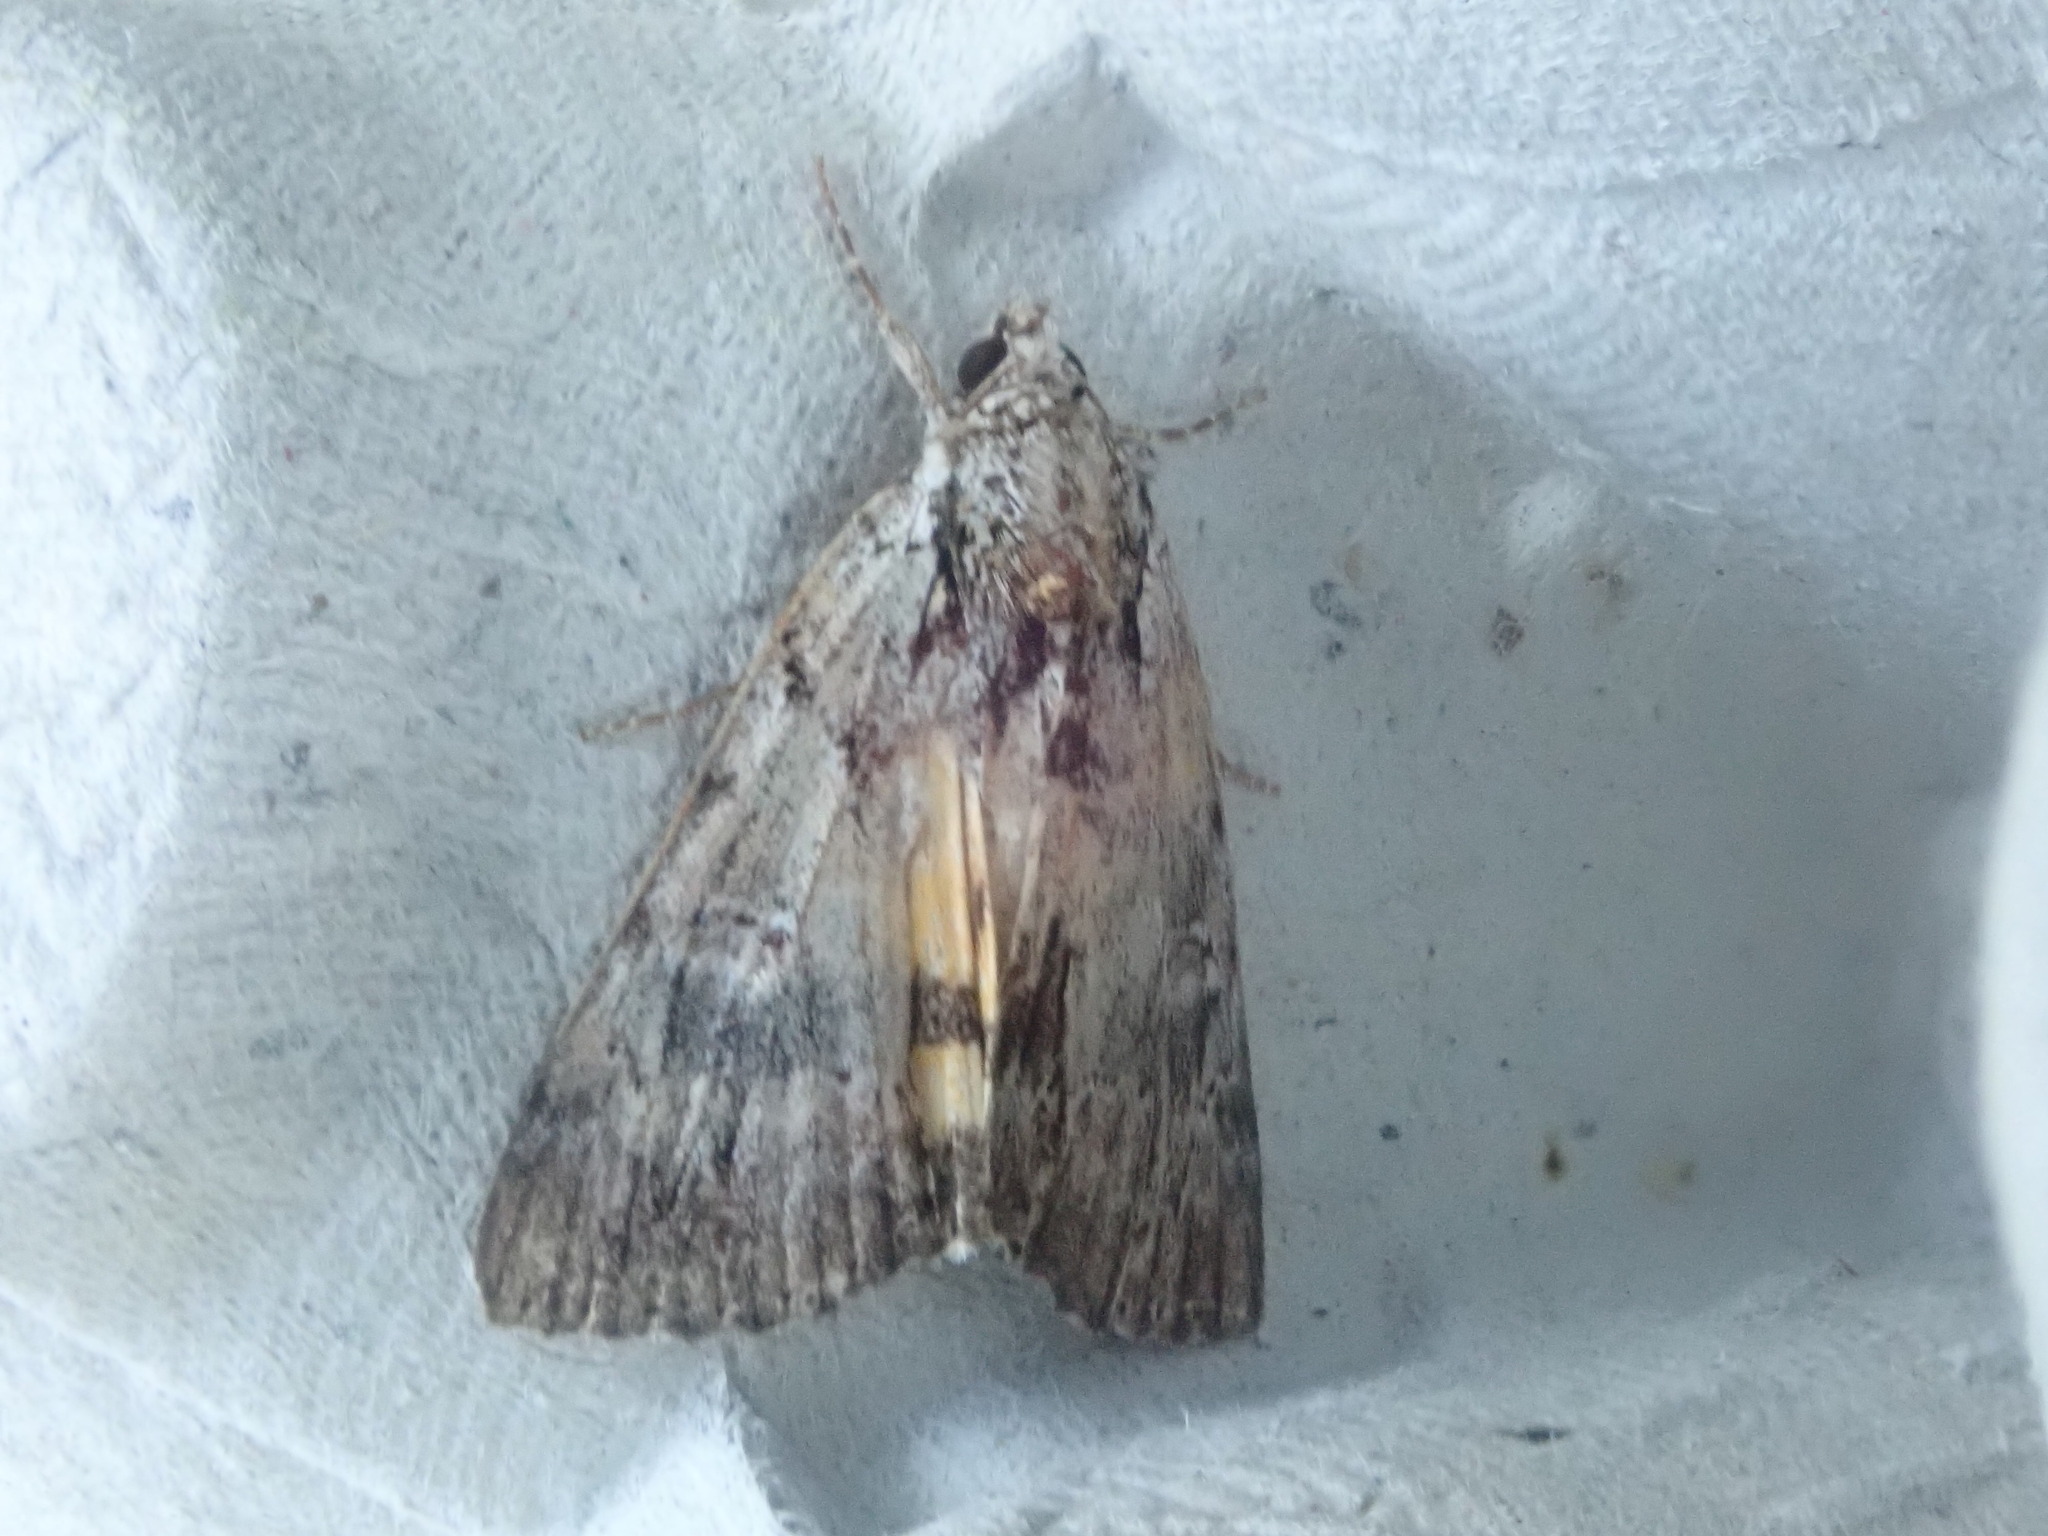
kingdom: Animalia
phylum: Arthropoda
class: Insecta
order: Lepidoptera
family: Erebidae
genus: Catocala
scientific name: Catocala praeclara
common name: Praeclara underwing
